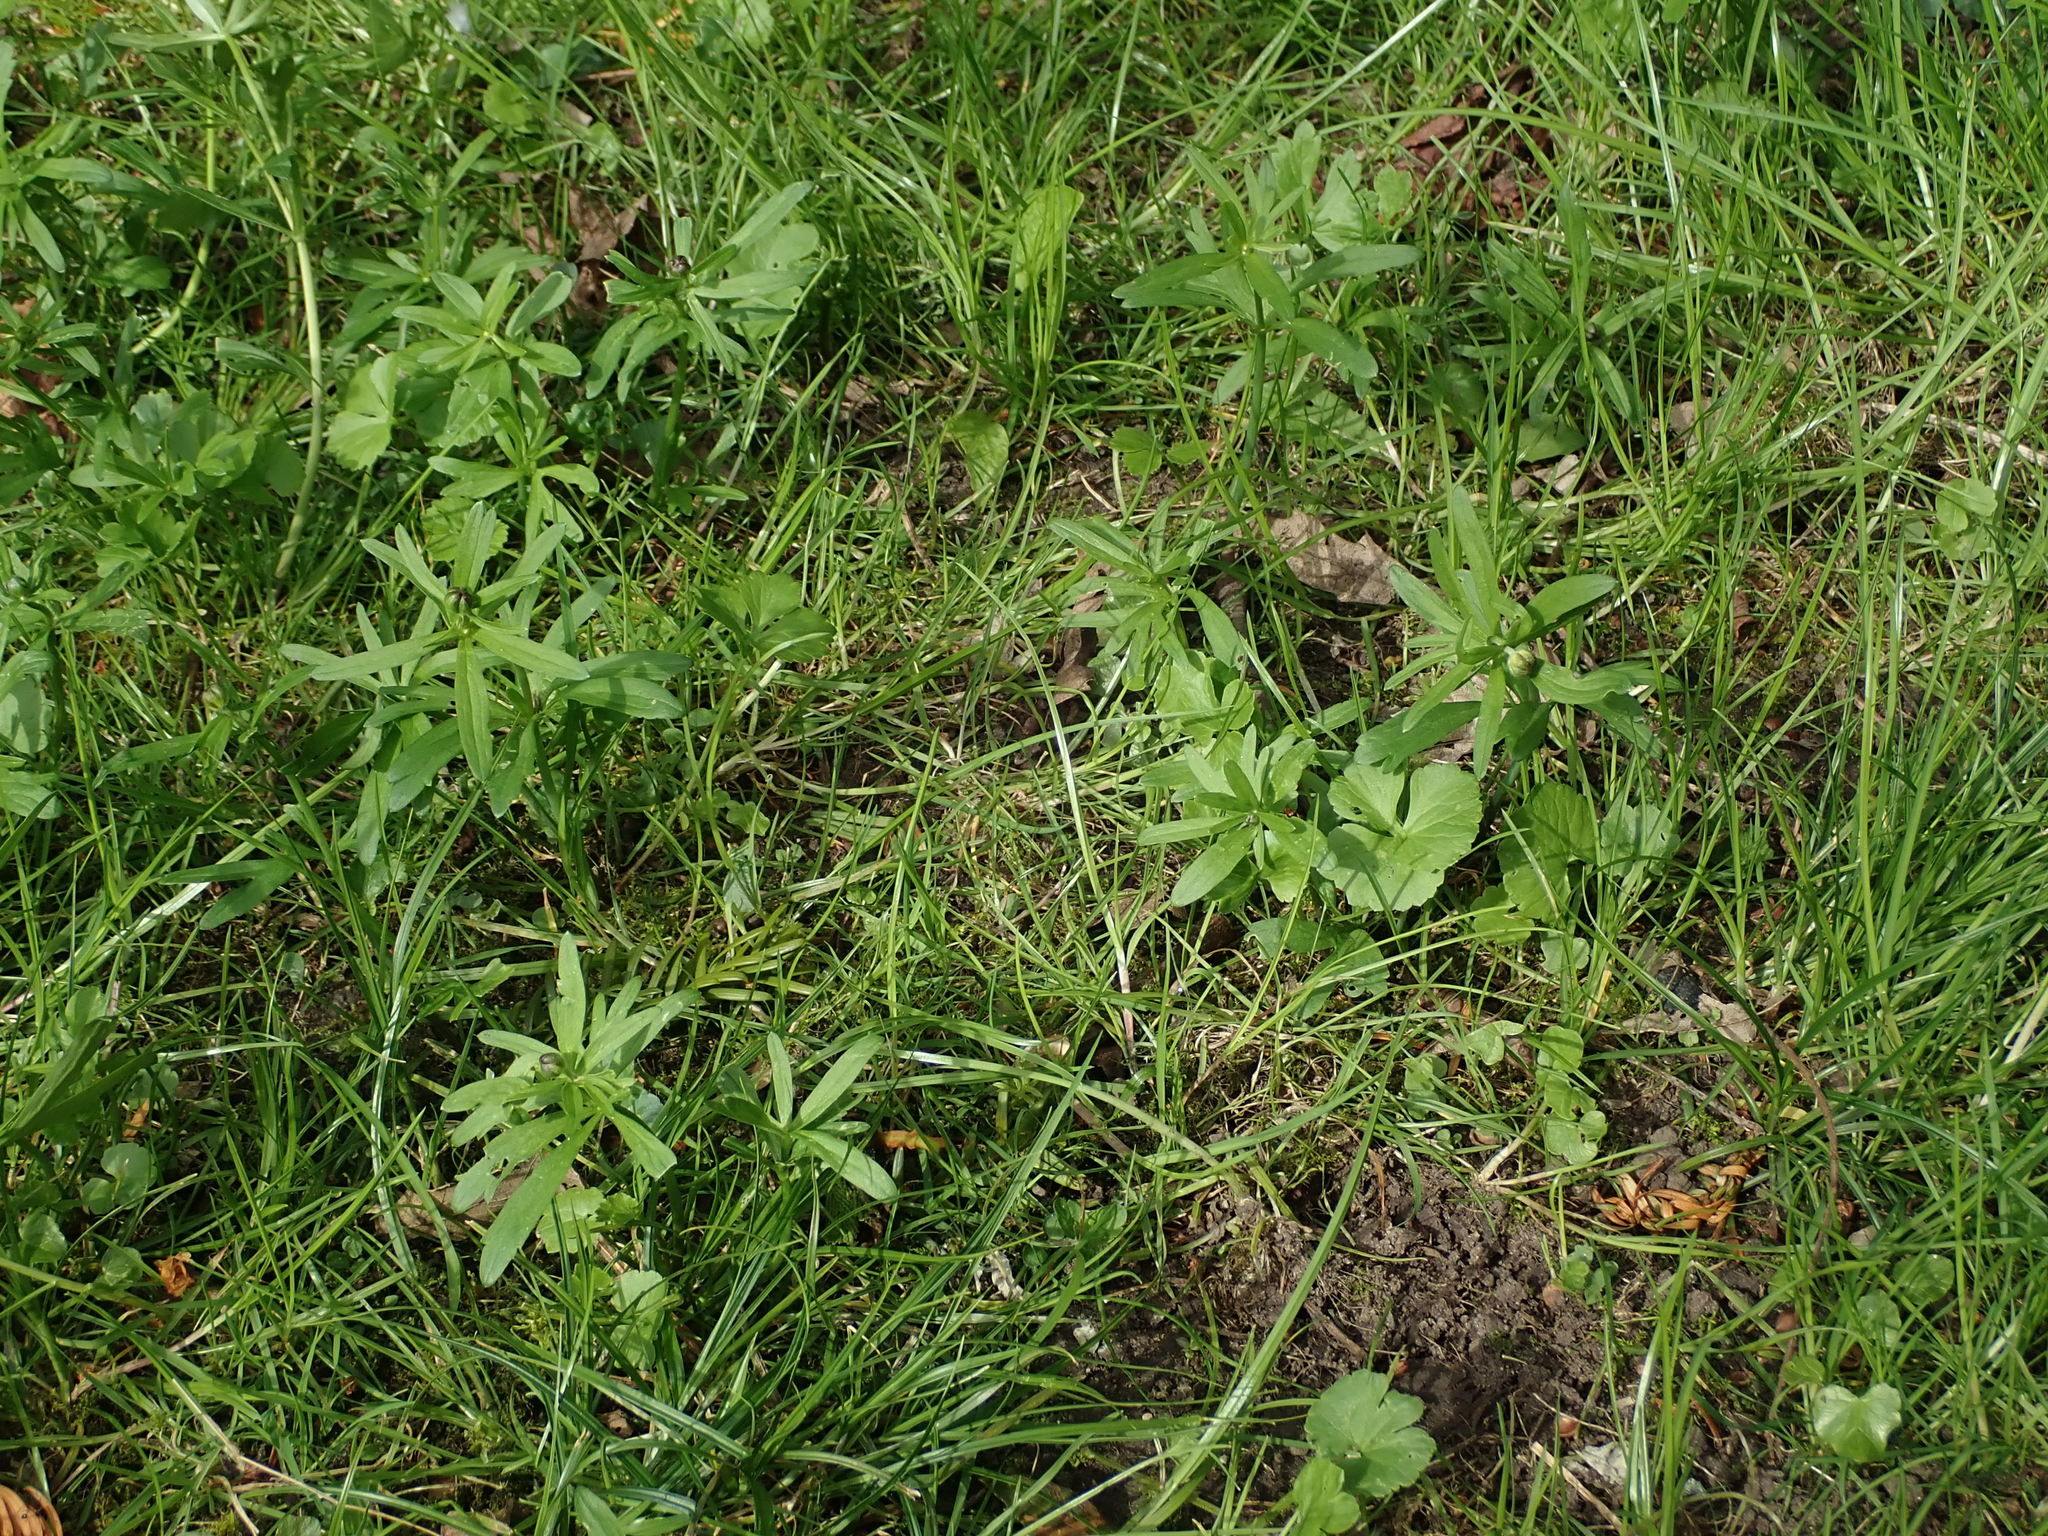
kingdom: Plantae
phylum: Tracheophyta
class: Magnoliopsida
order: Ranunculales
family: Ranunculaceae
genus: Ranunculus
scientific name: Ranunculus auricomus
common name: Goldilocks buttercup
